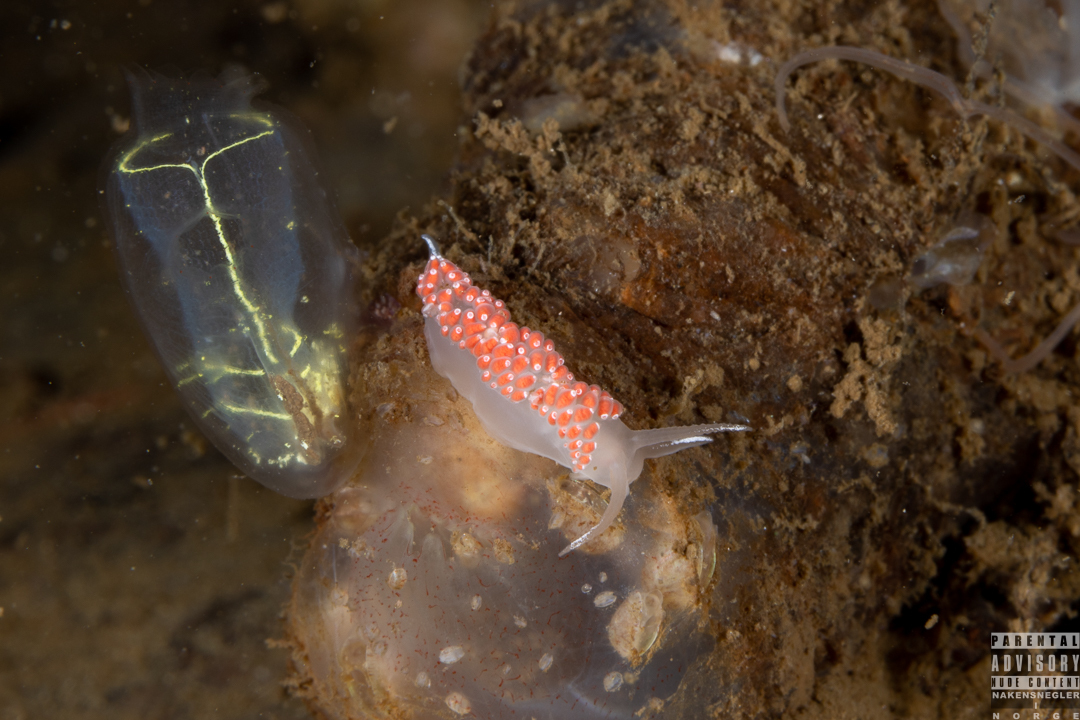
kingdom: Animalia
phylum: Mollusca
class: Gastropoda
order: Nudibranchia
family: Coryphellidae
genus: Coryphella
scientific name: Coryphella verrucosa
